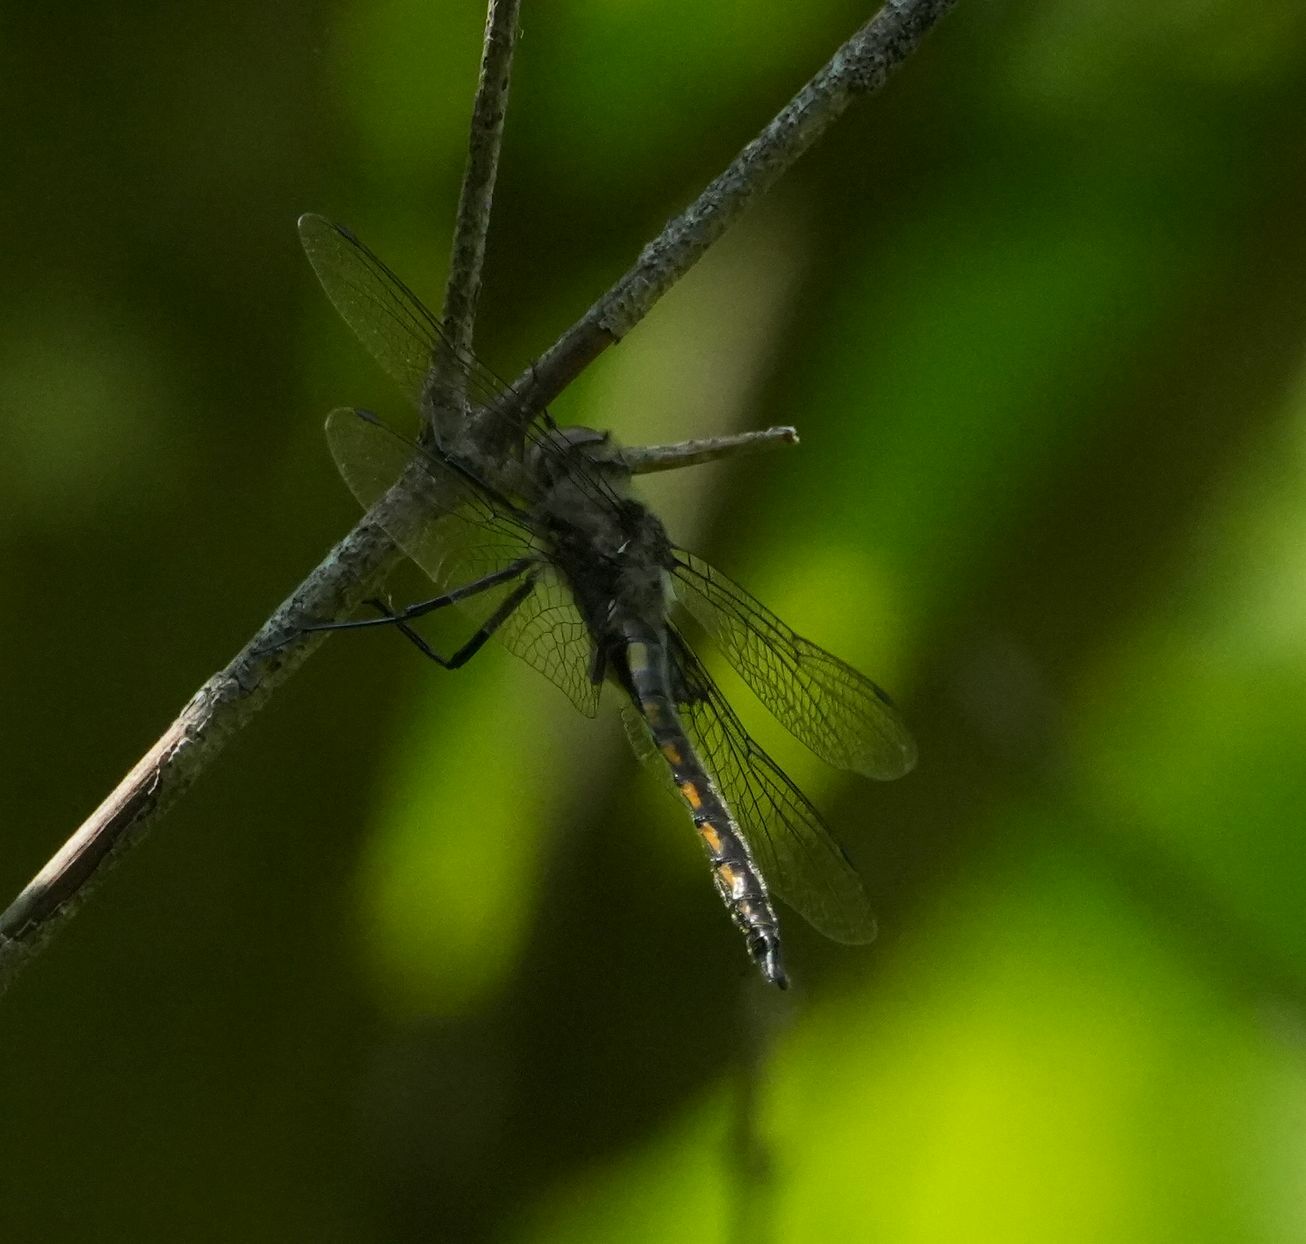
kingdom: Animalia
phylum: Arthropoda
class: Insecta
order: Odonata
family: Corduliidae
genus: Epitheca
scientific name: Epitheca cynosura
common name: Common baskettail
